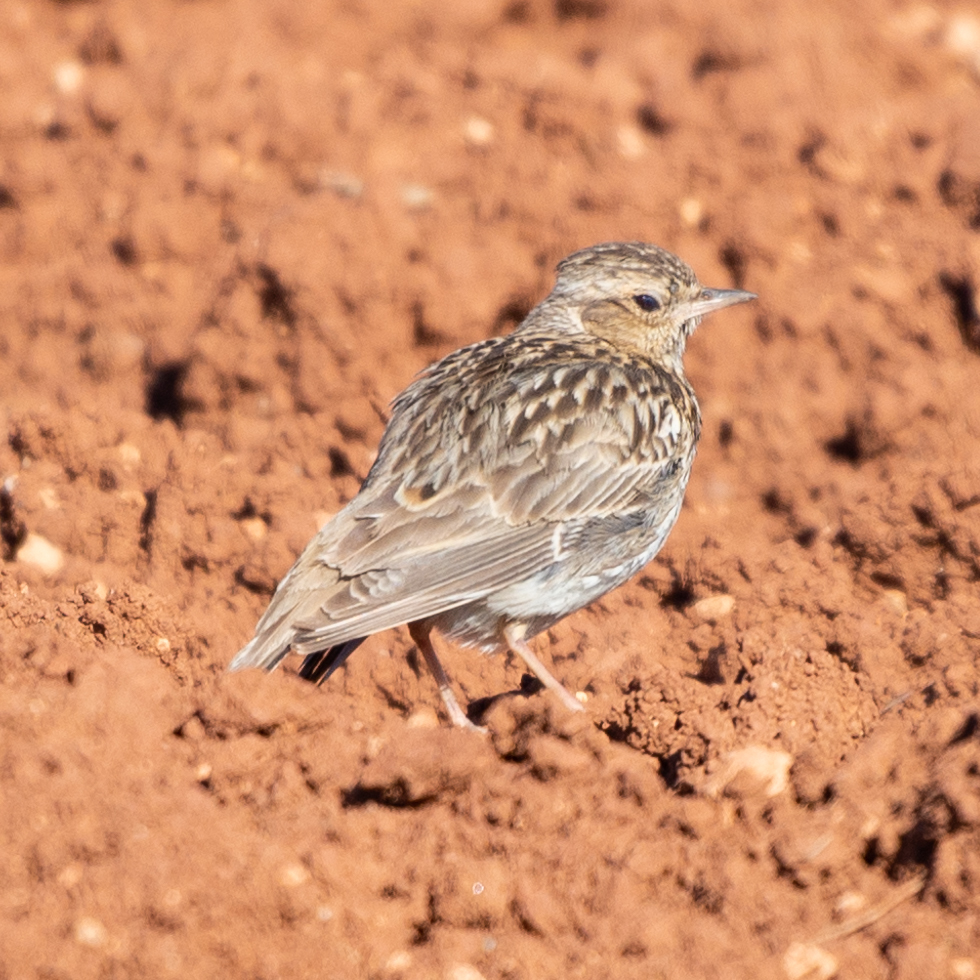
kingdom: Animalia
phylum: Chordata
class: Aves
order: Passeriformes
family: Alaudidae
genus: Lullula
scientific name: Lullula arborea
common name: Woodlark
